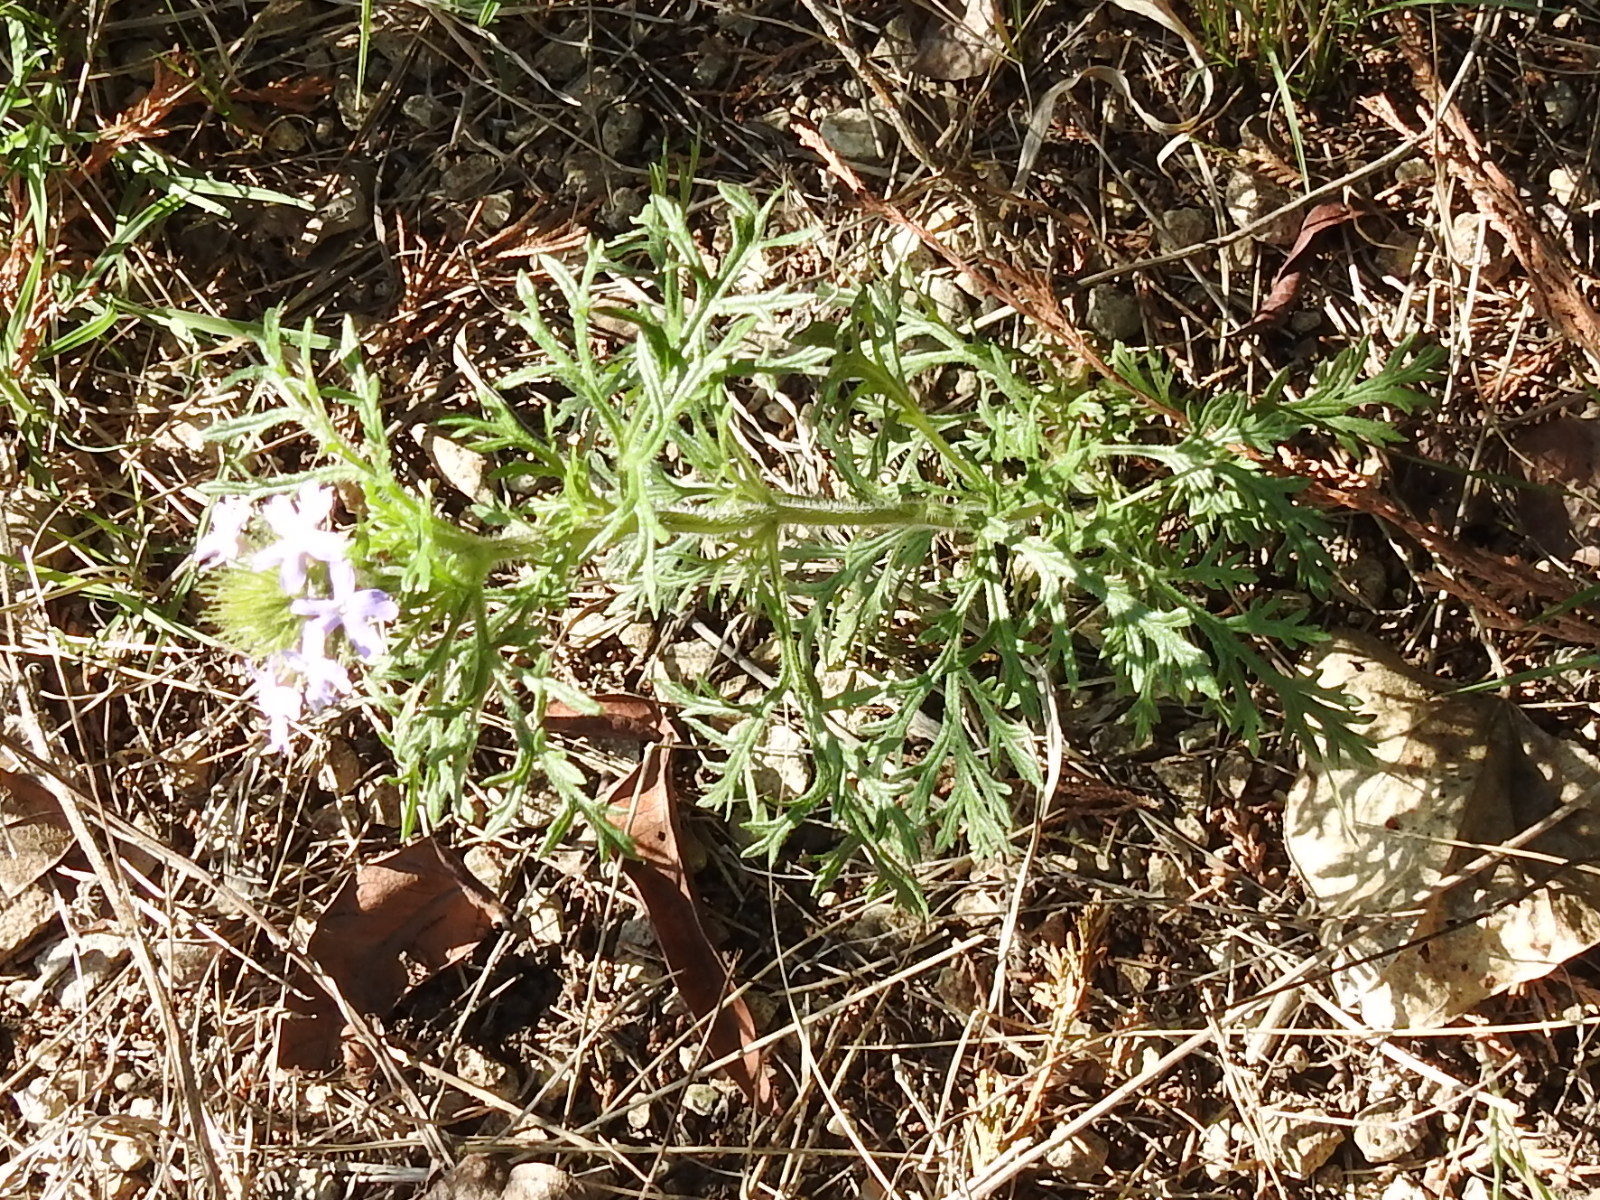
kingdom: Plantae
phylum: Tracheophyta
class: Magnoliopsida
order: Lamiales
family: Verbenaceae
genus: Verbena
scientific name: Verbena bipinnatifida
